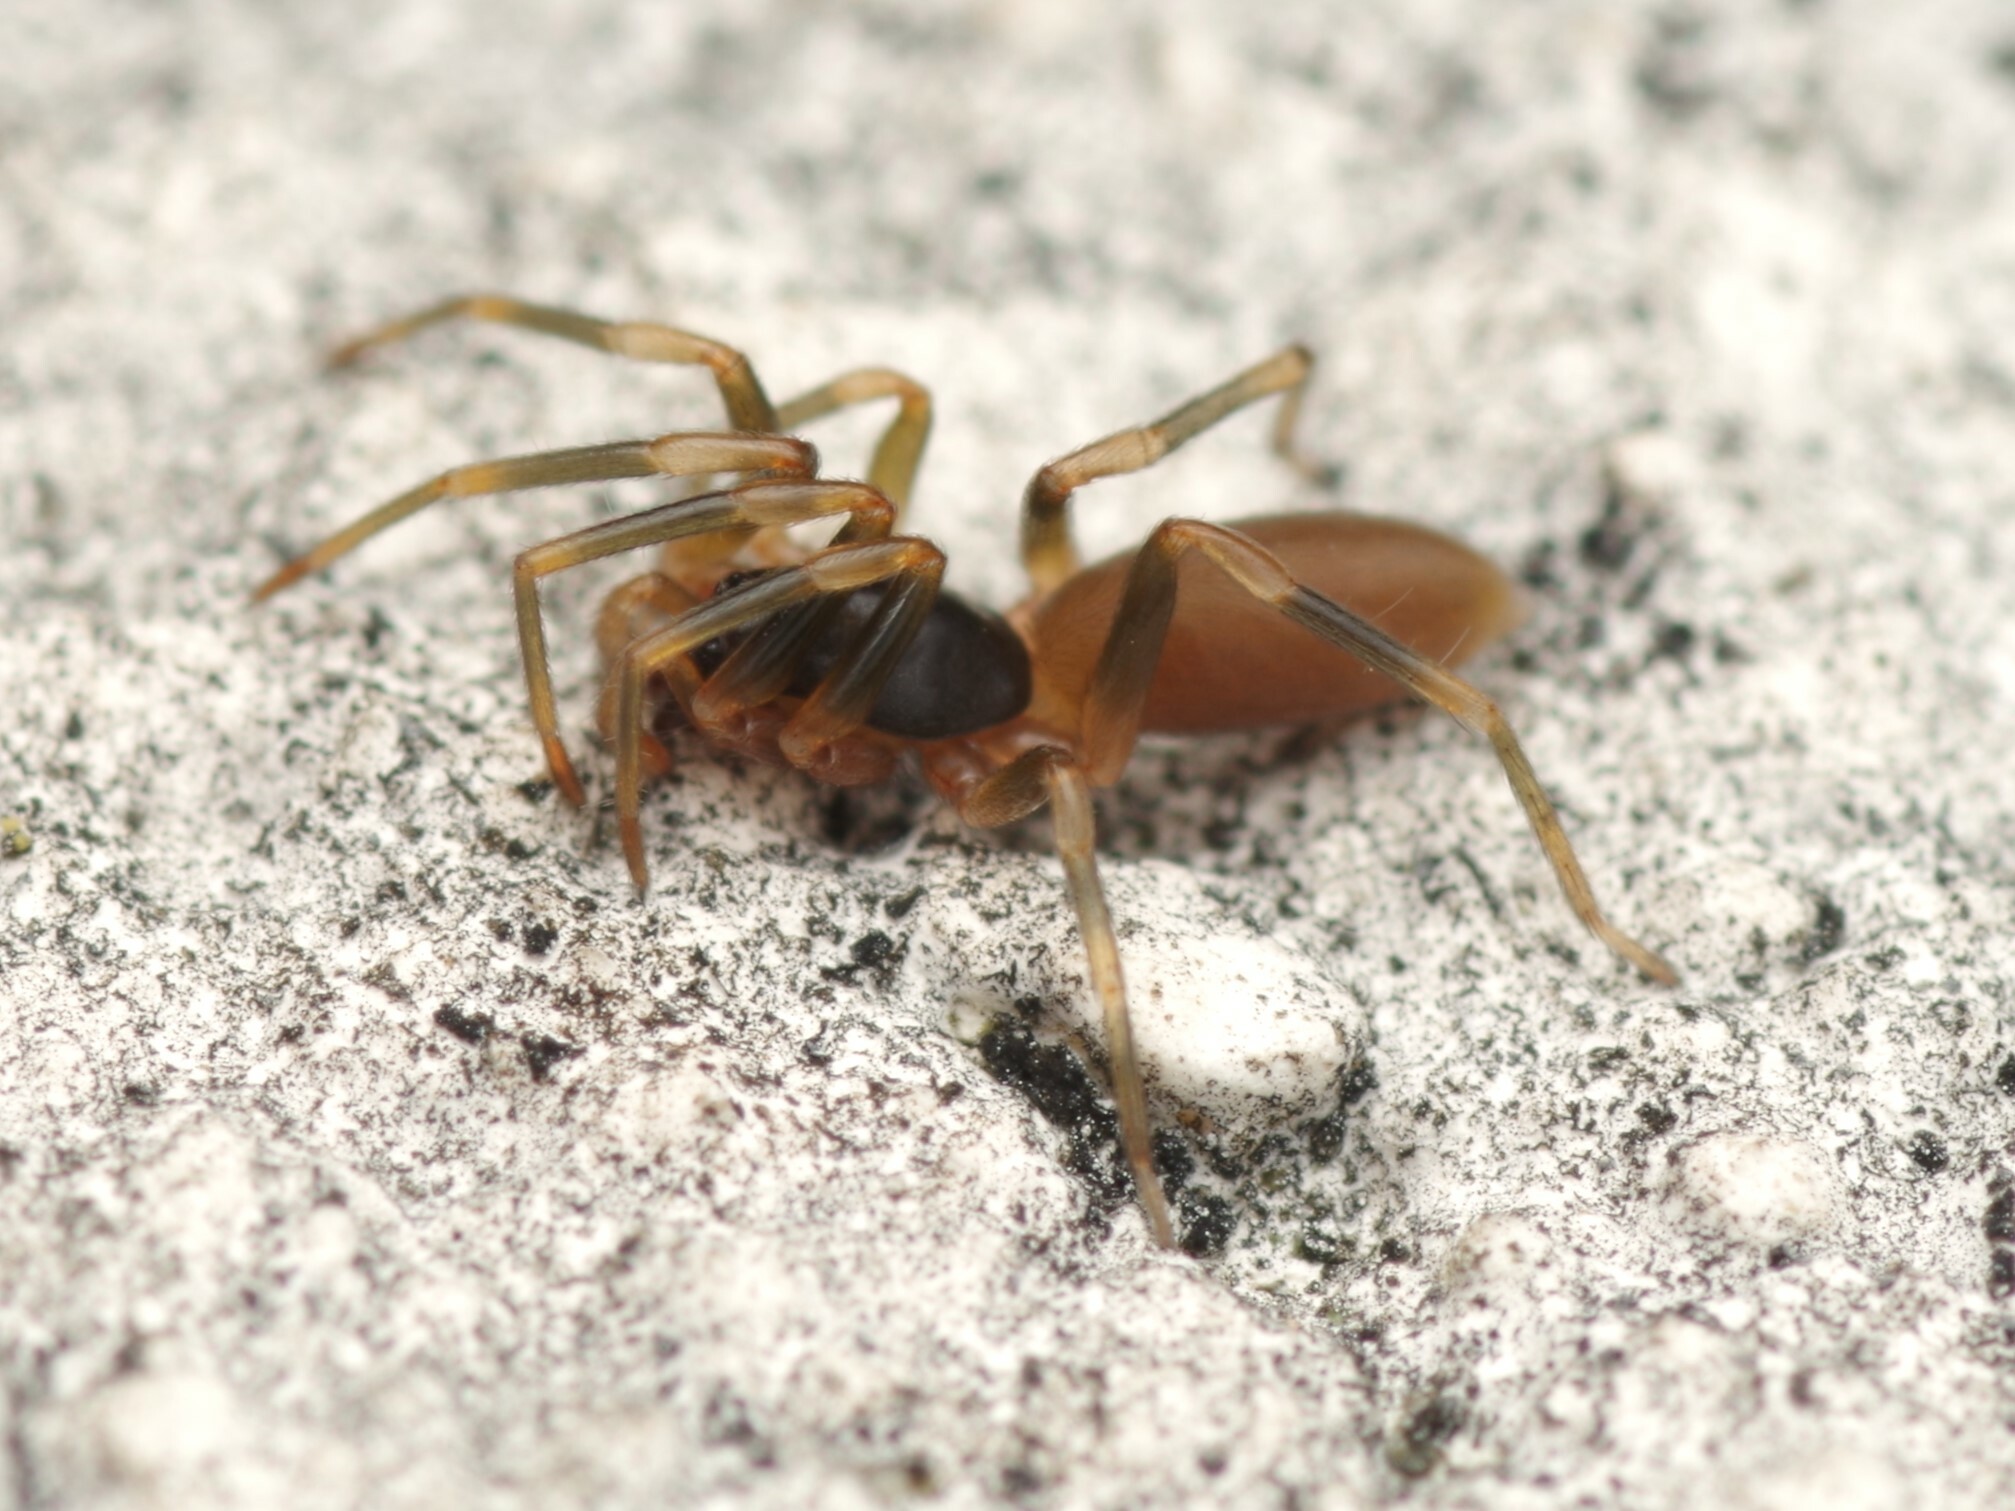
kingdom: Animalia
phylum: Arthropoda
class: Arachnida
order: Araneae
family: Dysderidae
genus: Harpactea
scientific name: Harpactea hombergi
